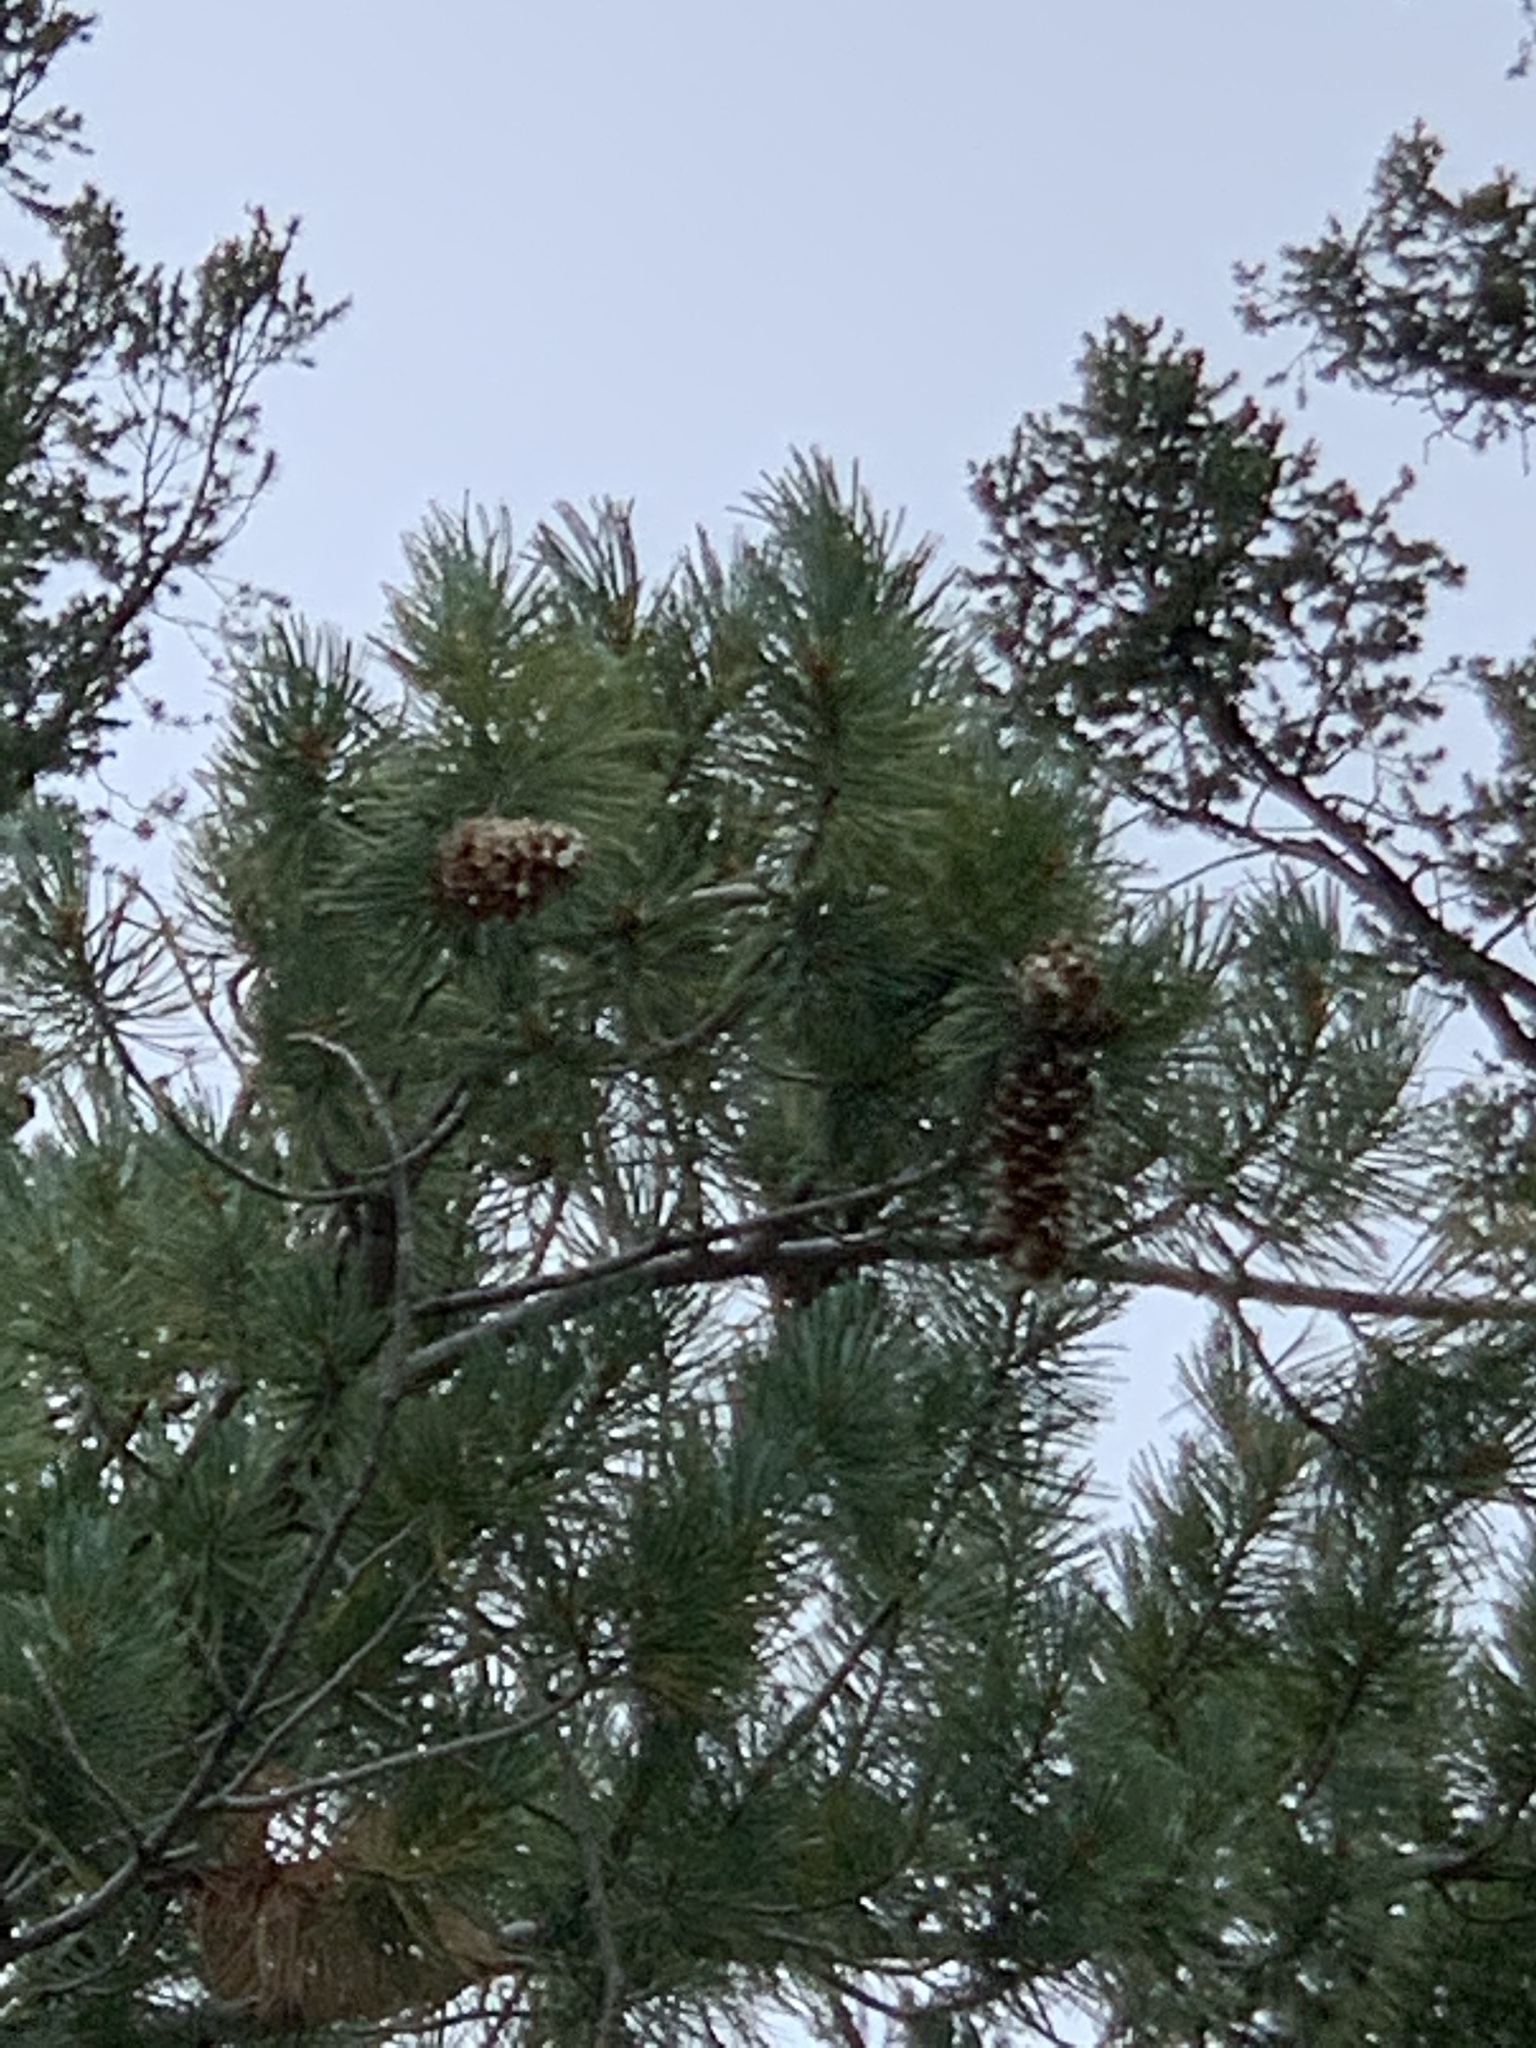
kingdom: Plantae
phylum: Tracheophyta
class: Pinopsida
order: Pinales
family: Pinaceae
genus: Pinus
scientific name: Pinus strobiformis
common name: Southwestern white pine
